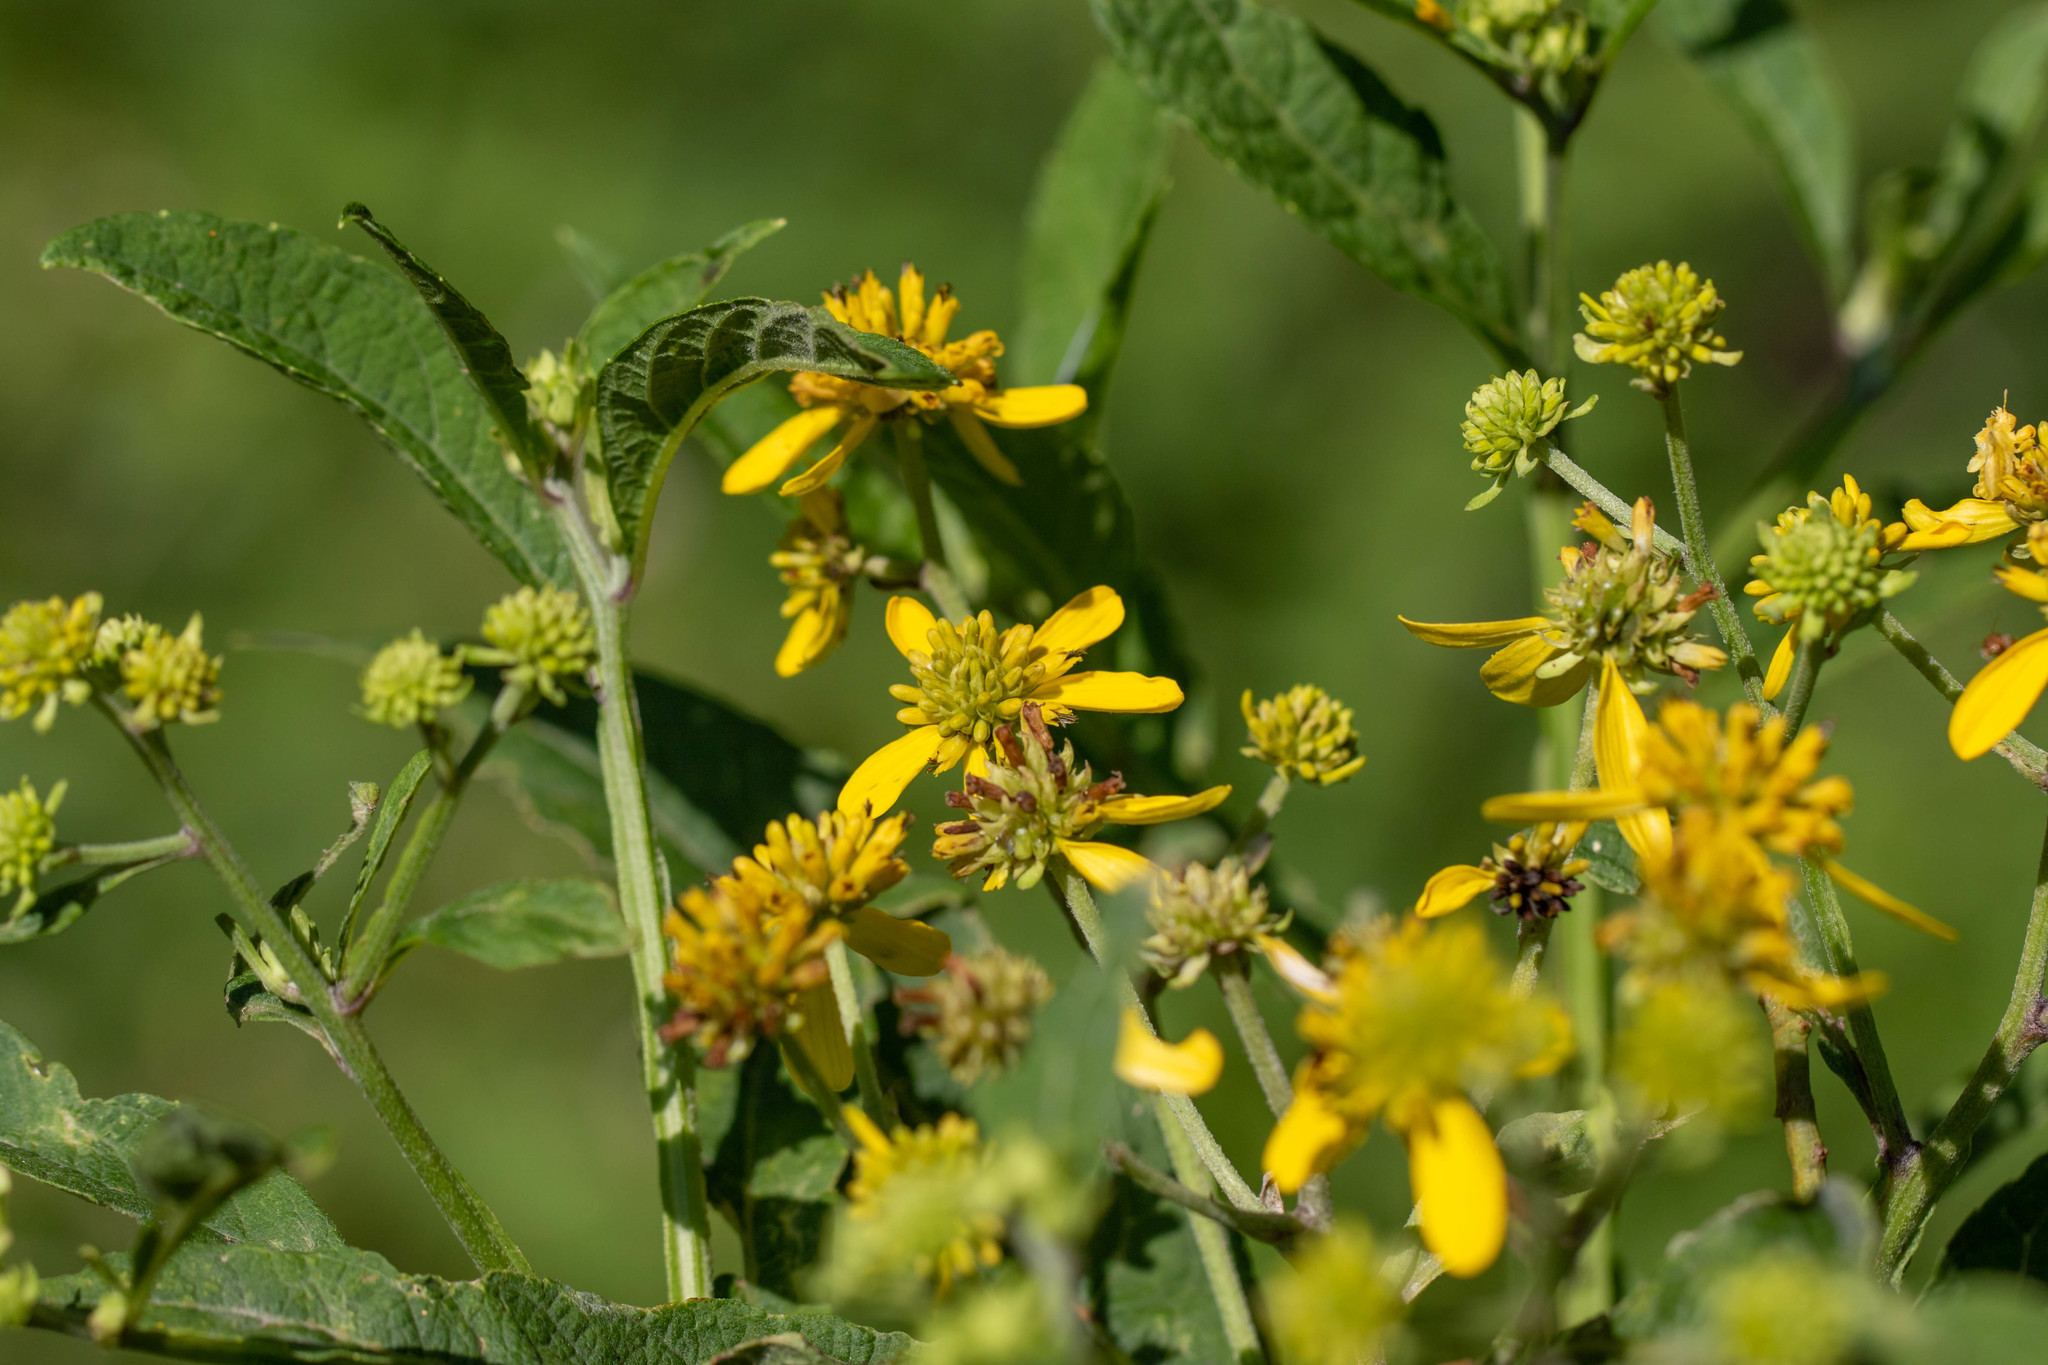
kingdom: Plantae
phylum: Tracheophyta
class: Magnoliopsida
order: Asterales
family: Asteraceae
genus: Verbesina
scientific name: Verbesina alternifolia
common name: Wingstem
